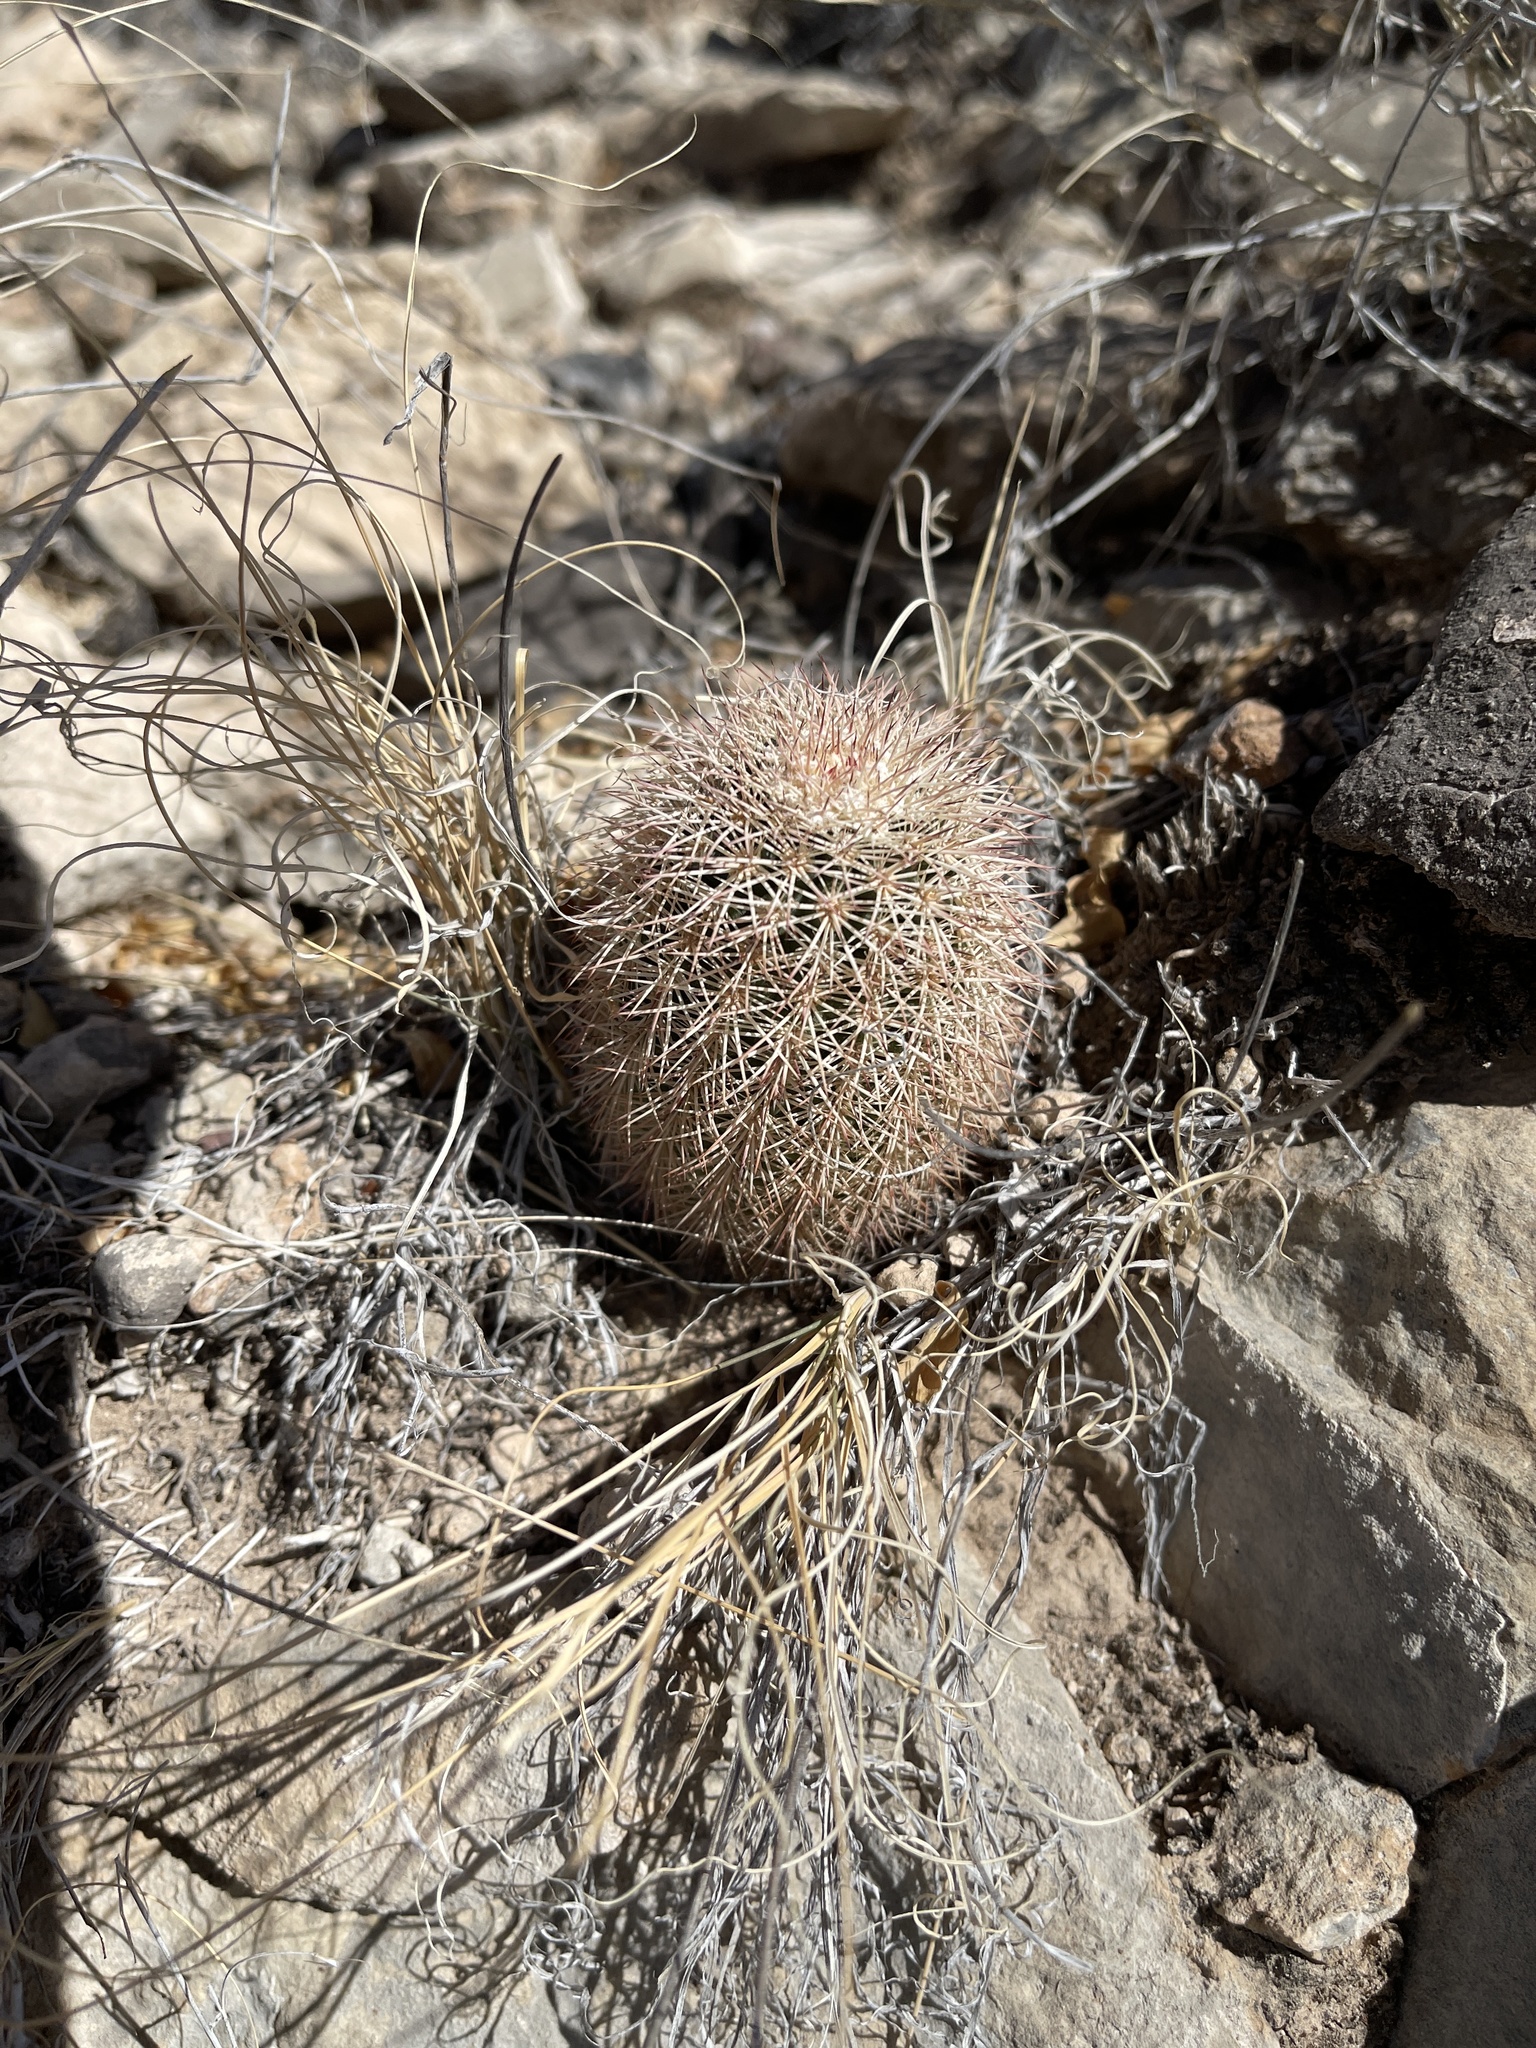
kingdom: Plantae
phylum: Tracheophyta
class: Magnoliopsida
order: Caryophyllales
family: Cactaceae
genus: Echinocereus
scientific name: Echinocereus dasyacanthus
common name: Spiny hedgehog cactus
